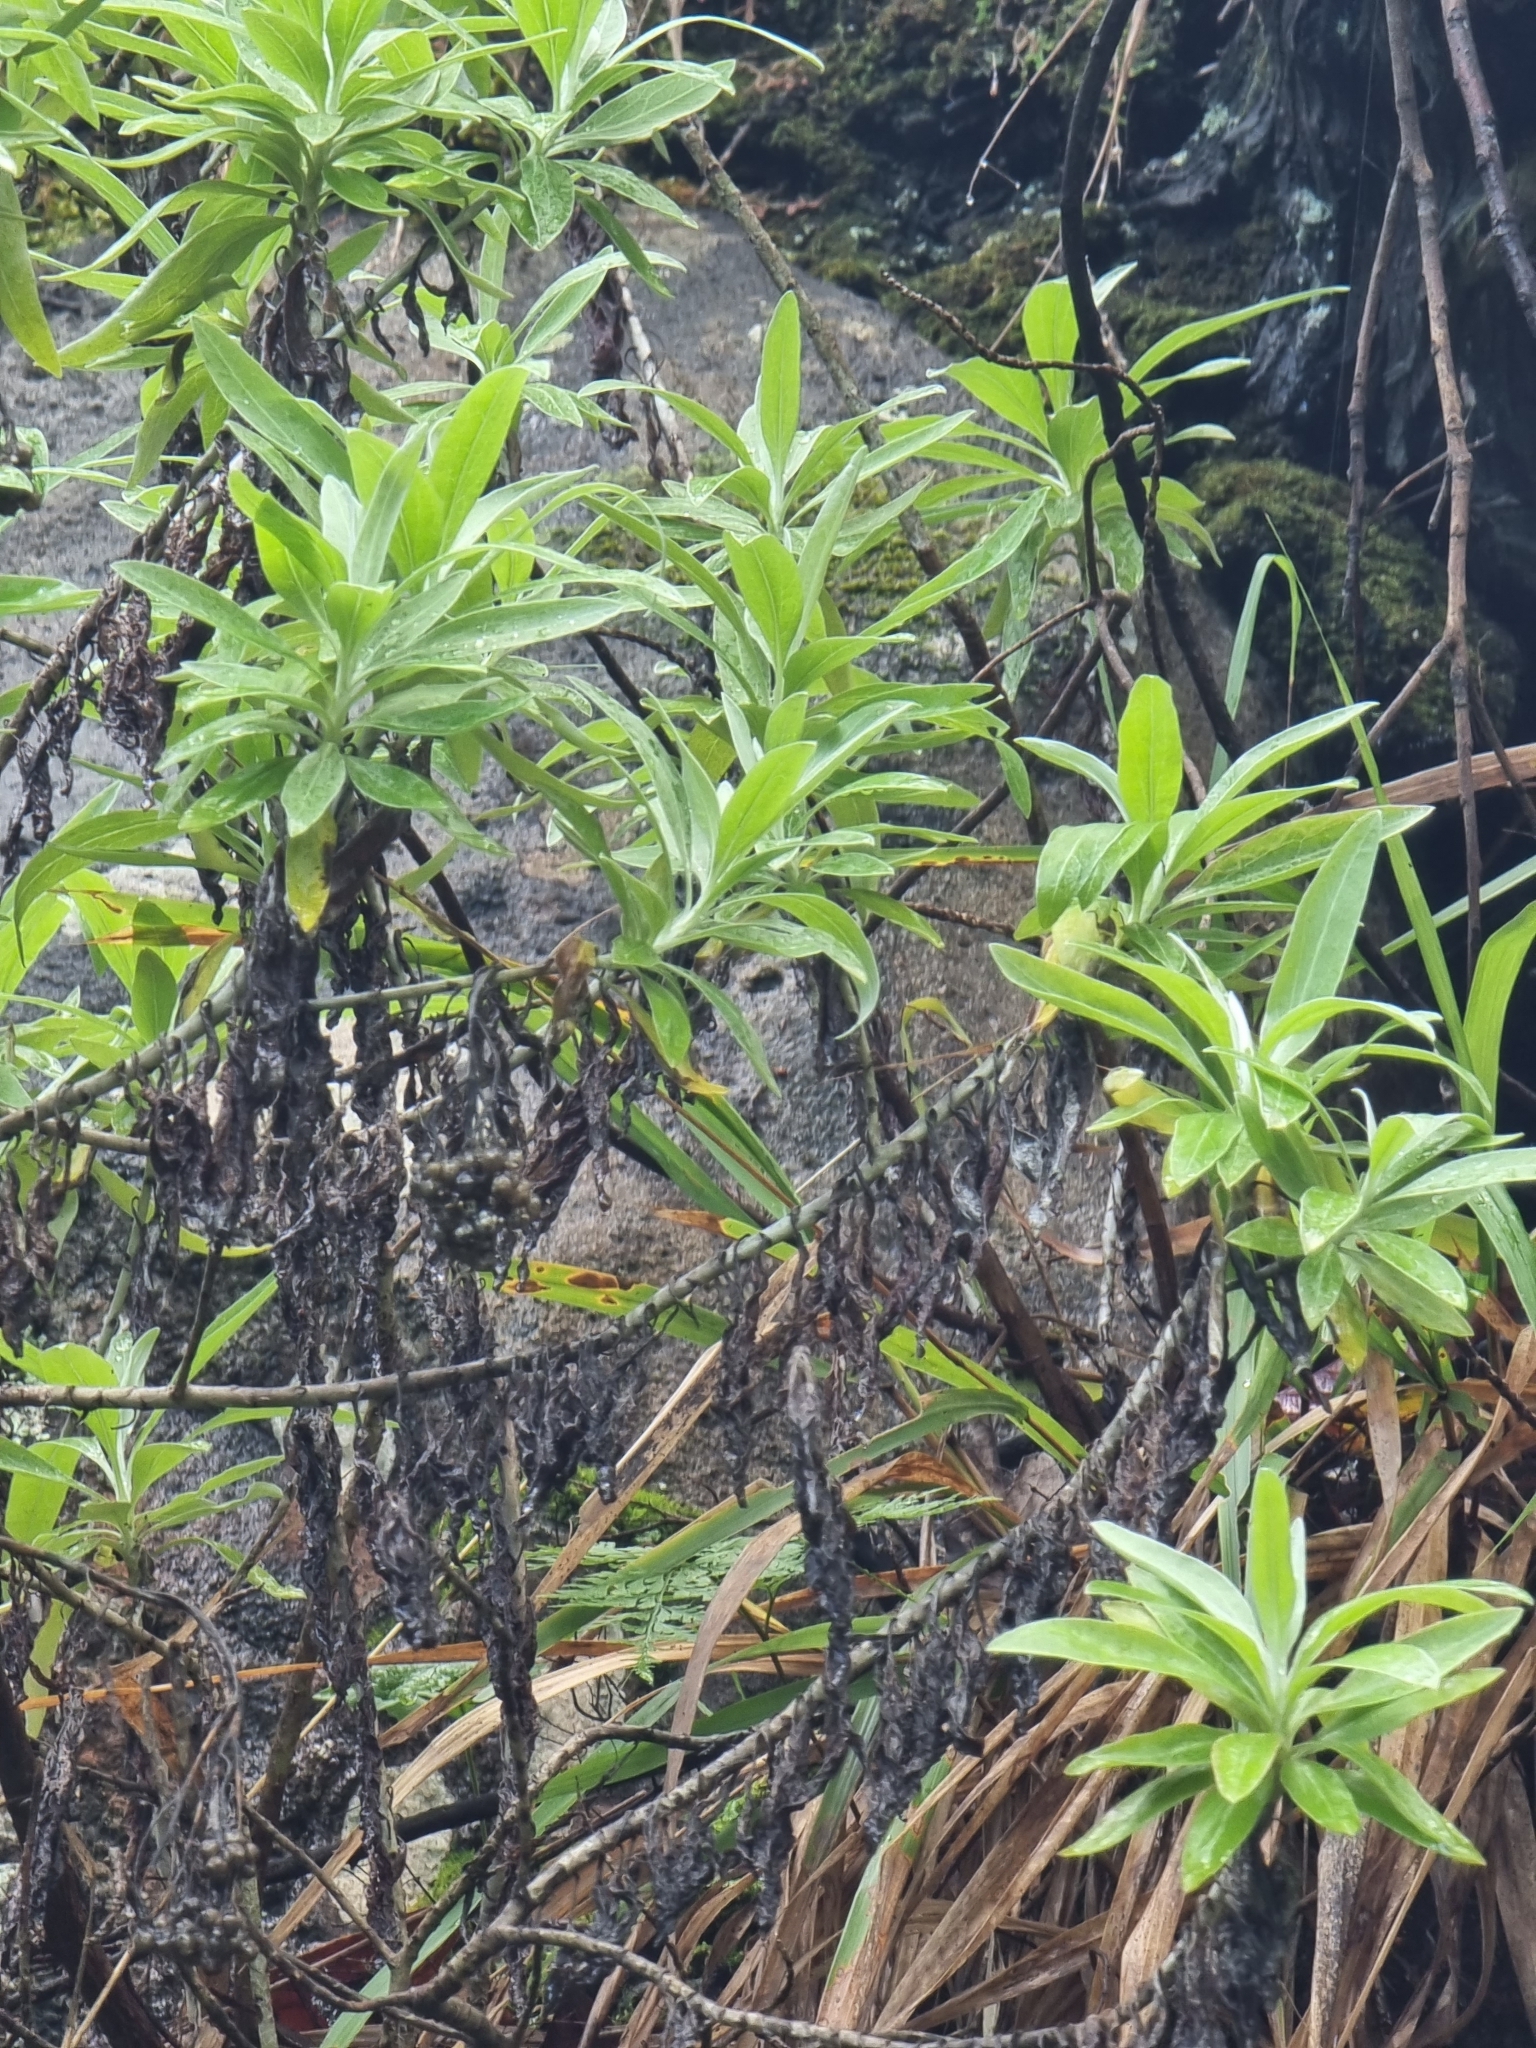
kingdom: Plantae
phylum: Tracheophyta
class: Magnoliopsida
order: Asterales
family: Asteraceae
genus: Helichrysum
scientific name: Helichrysum melaleucum
